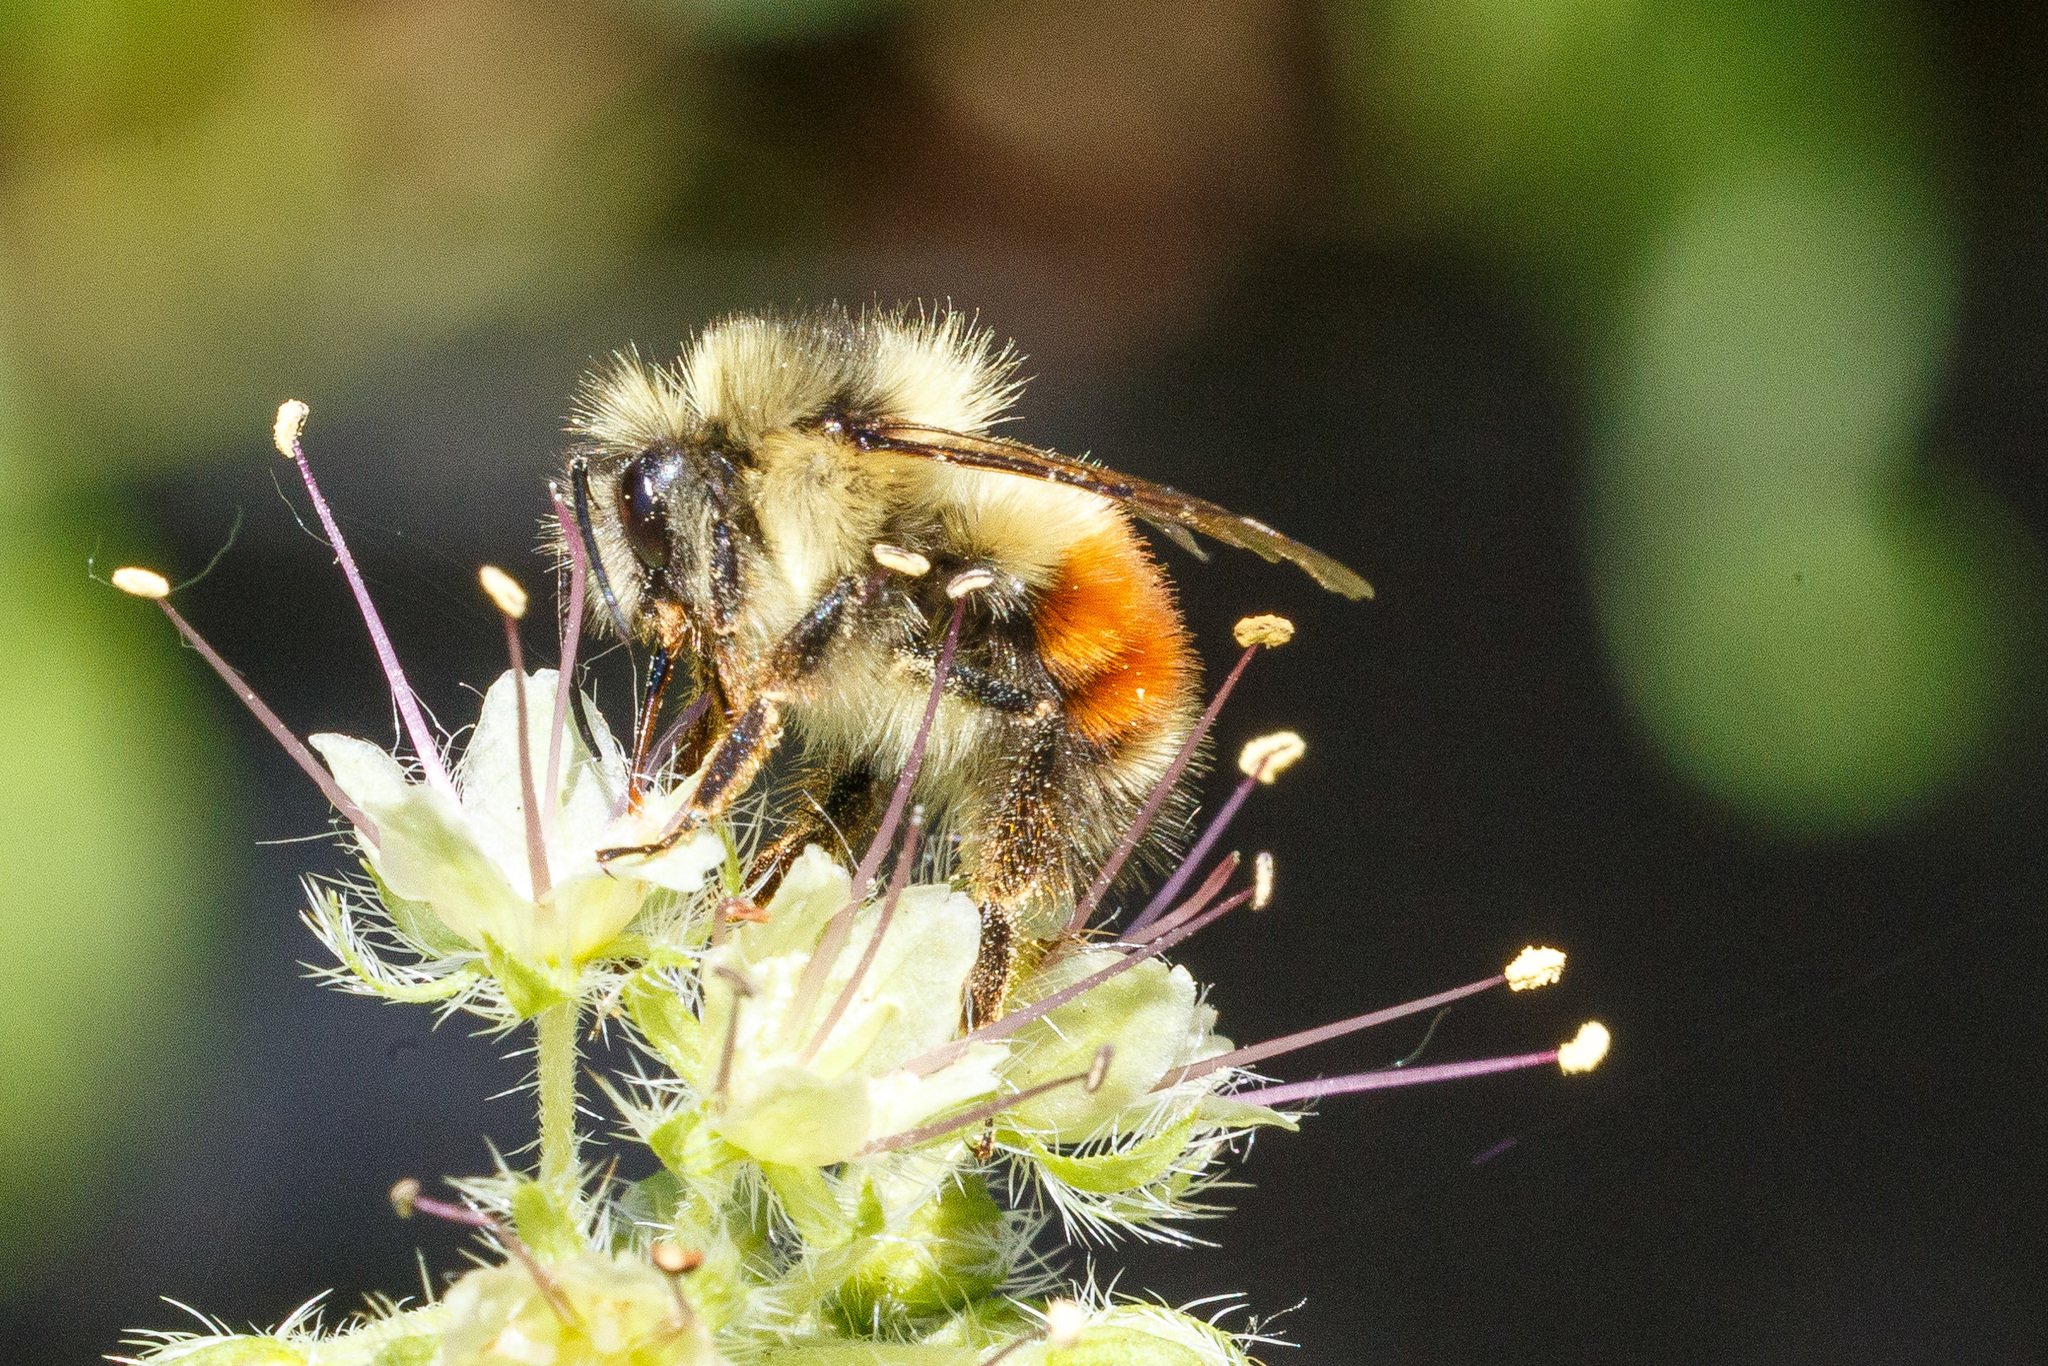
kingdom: Animalia
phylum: Arthropoda
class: Insecta
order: Hymenoptera
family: Apidae
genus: Bombus
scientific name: Bombus melanopygus
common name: Black tail bumble bee
